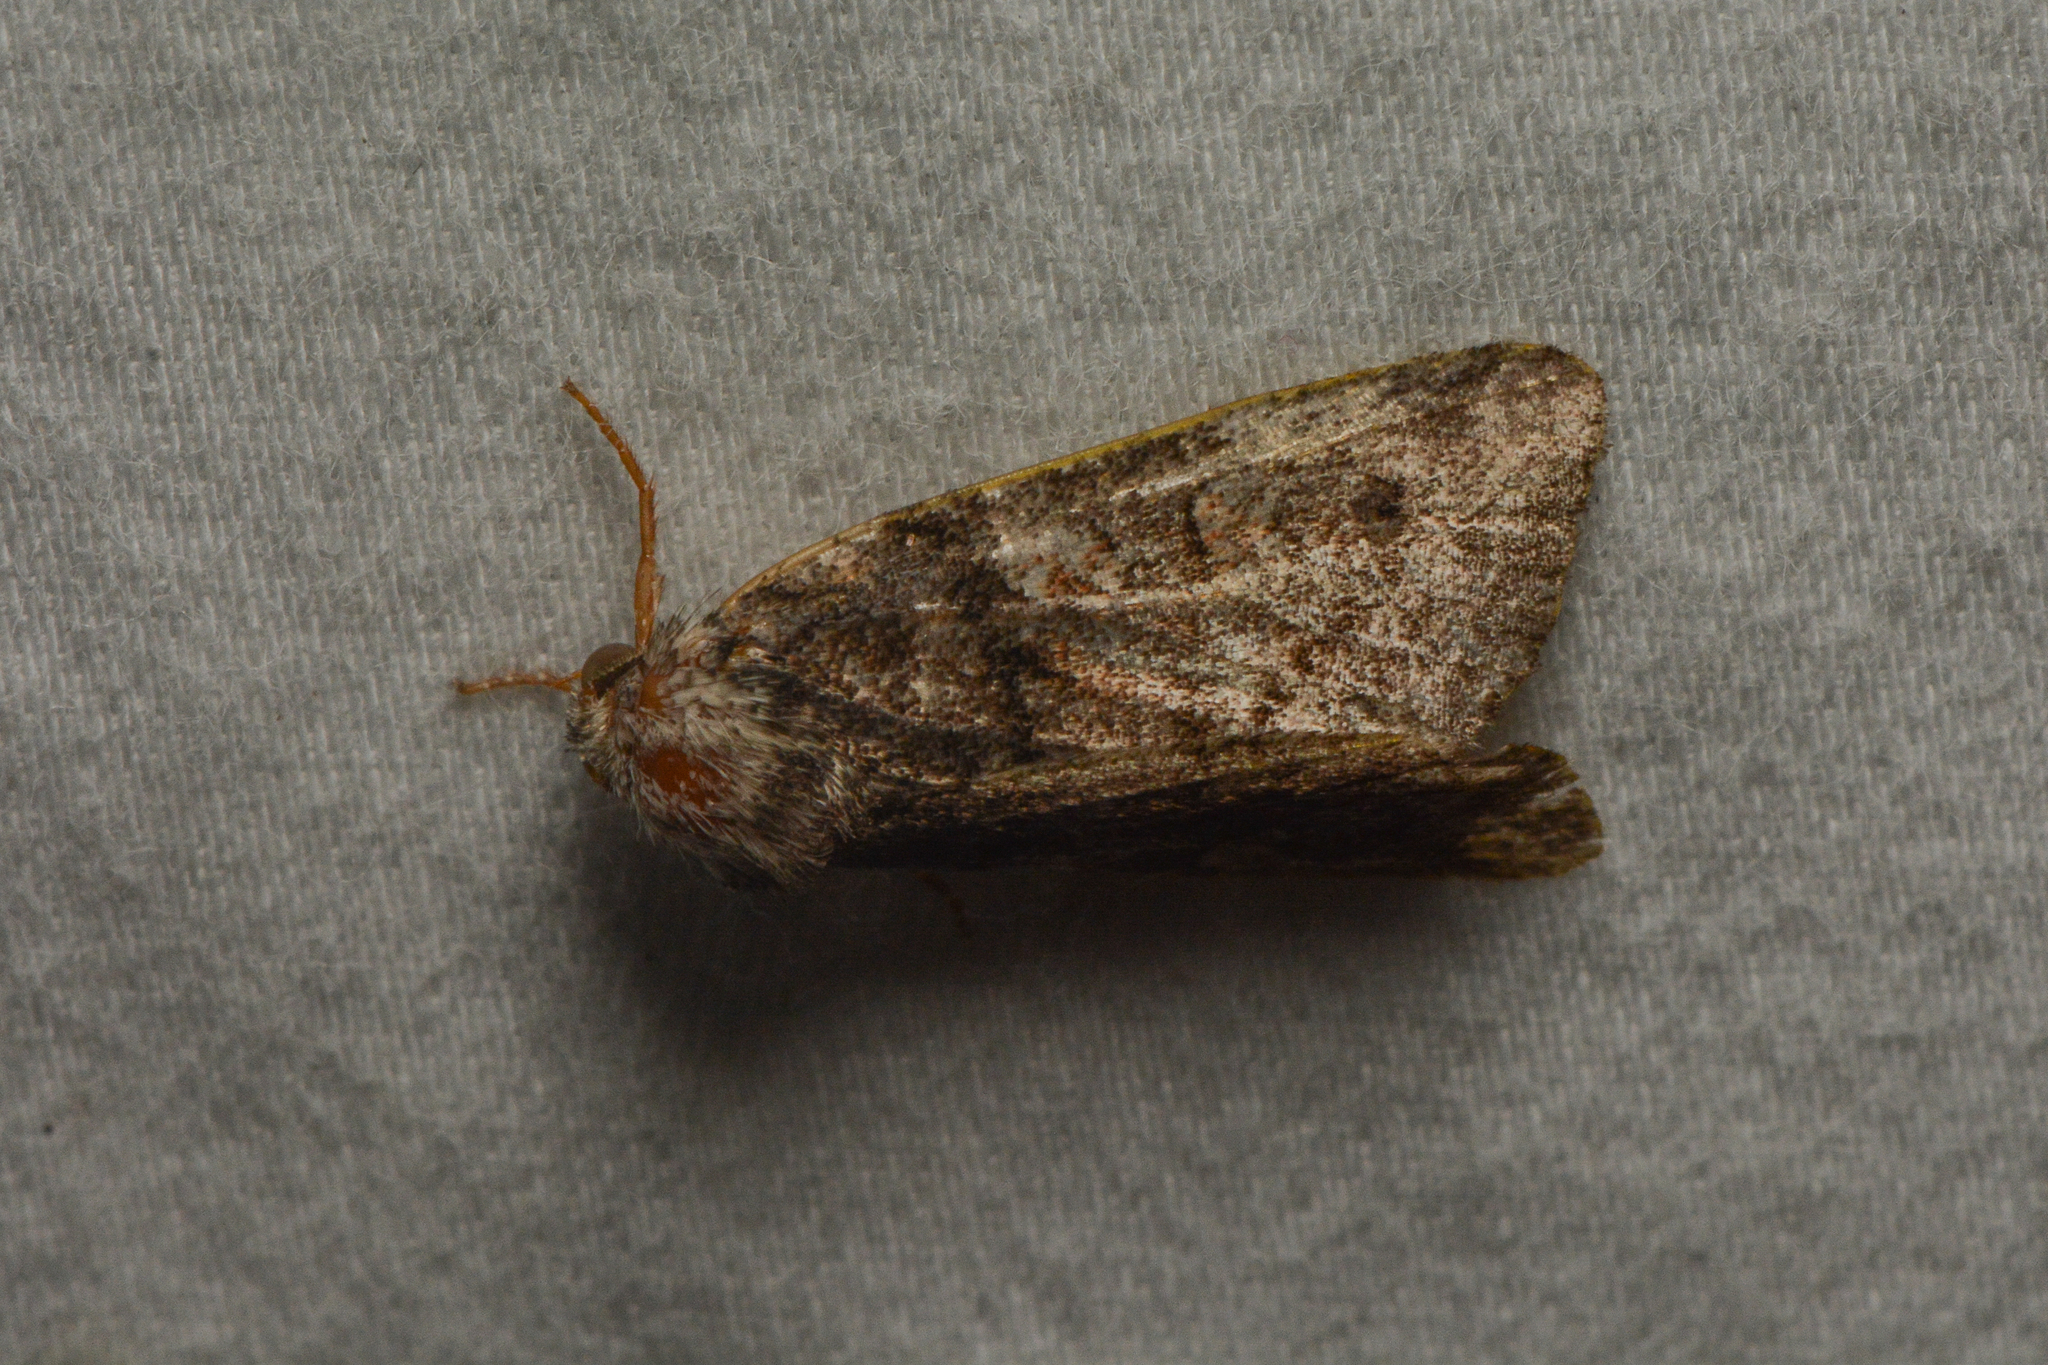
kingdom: Animalia
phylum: Arthropoda
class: Insecta
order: Lepidoptera
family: Noctuidae
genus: Cosmia
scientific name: Cosmia praeacuta
